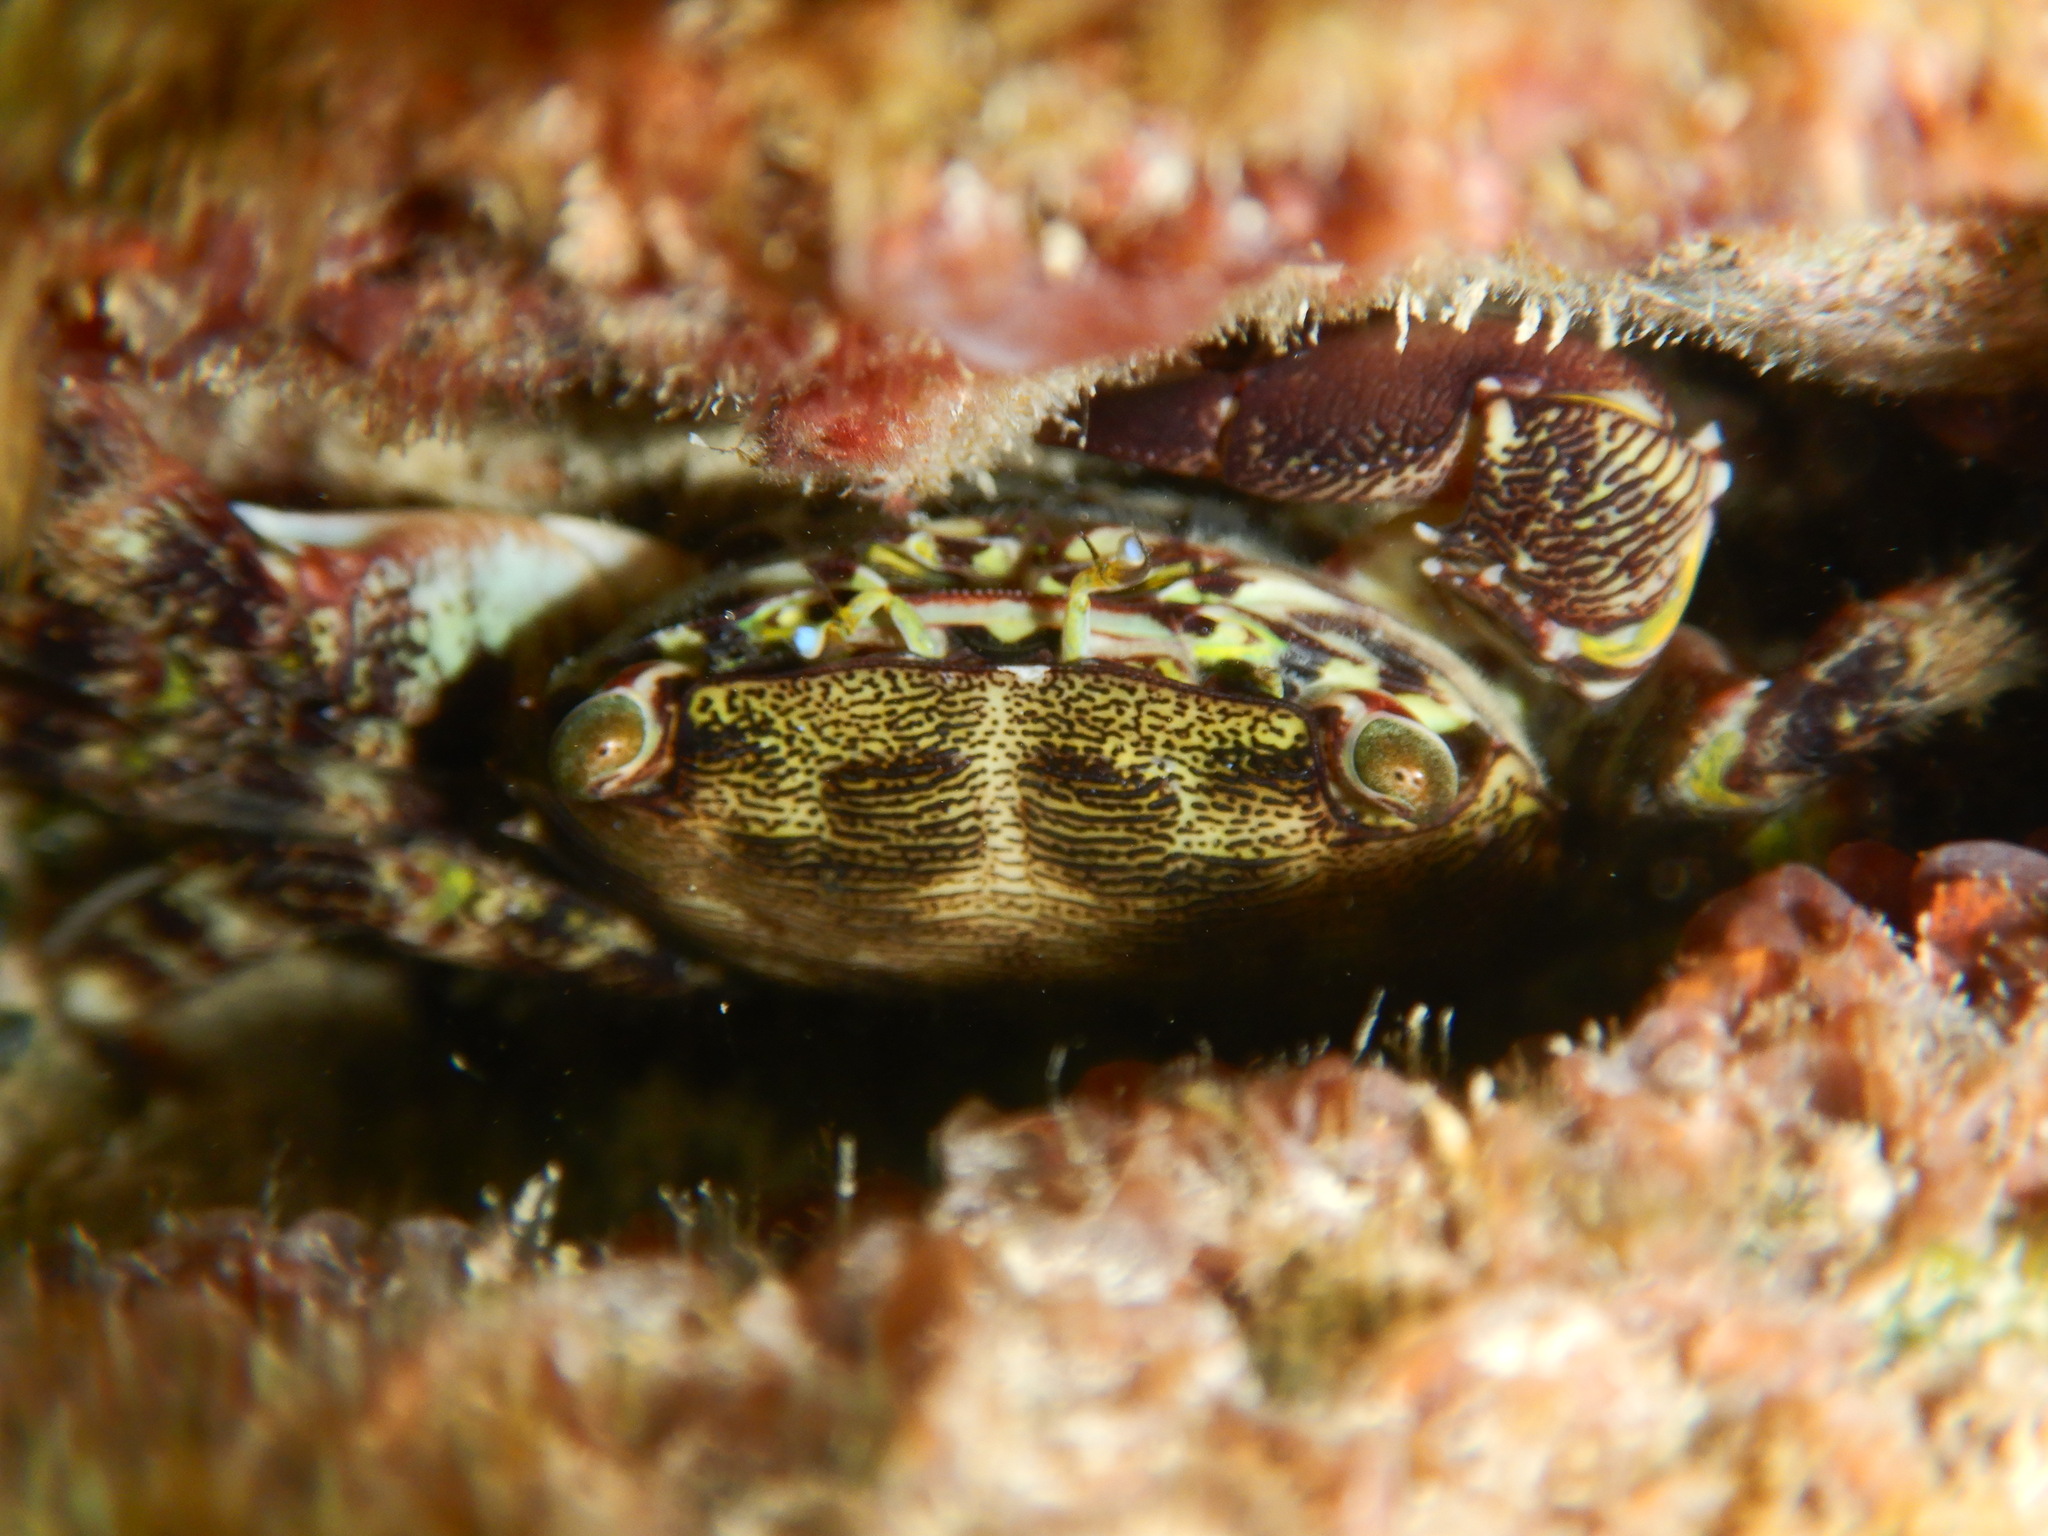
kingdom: Animalia
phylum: Arthropoda
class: Malacostraca
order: Decapoda
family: Grapsidae
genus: Pachygrapsus
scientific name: Pachygrapsus marmoratus
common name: Marbled rock crab
